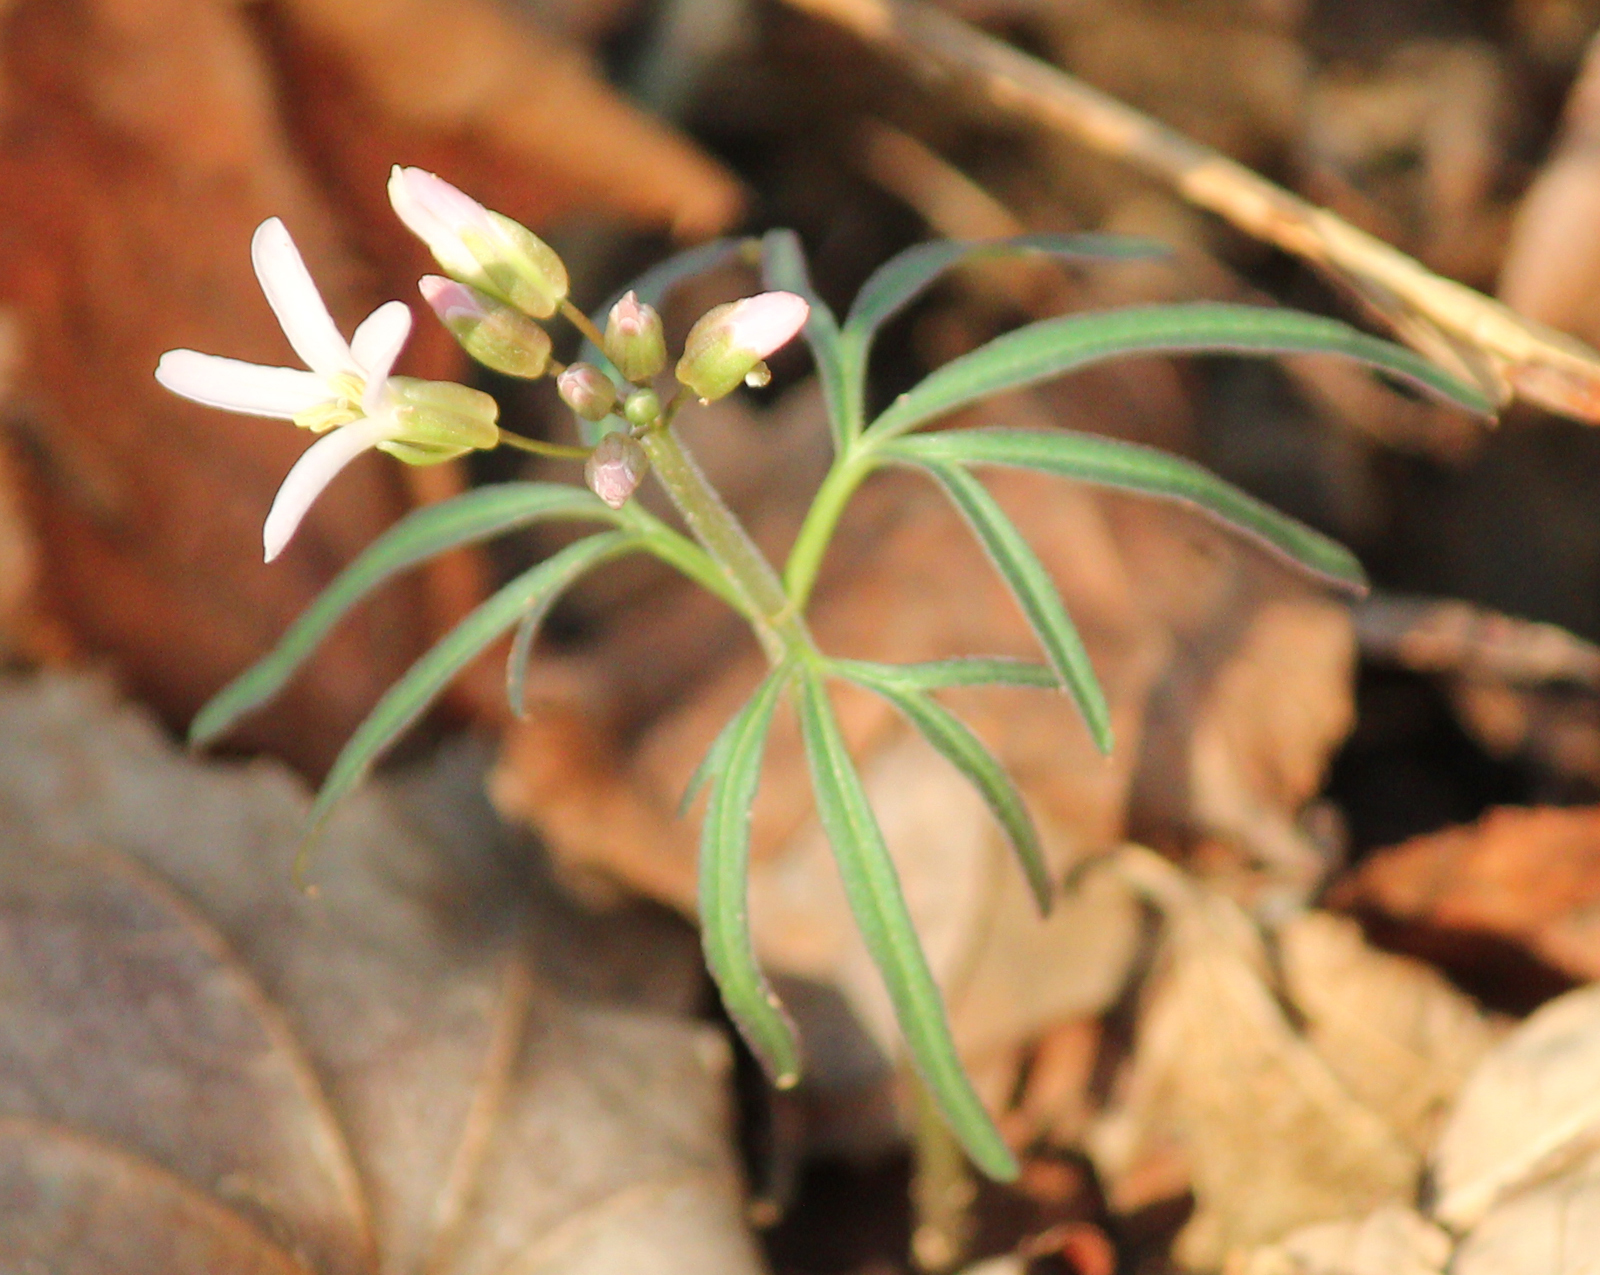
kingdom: Plantae
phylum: Tracheophyta
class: Magnoliopsida
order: Brassicales
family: Brassicaceae
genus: Cardamine
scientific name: Cardamine concatenata
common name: Cut-leaf toothcup
